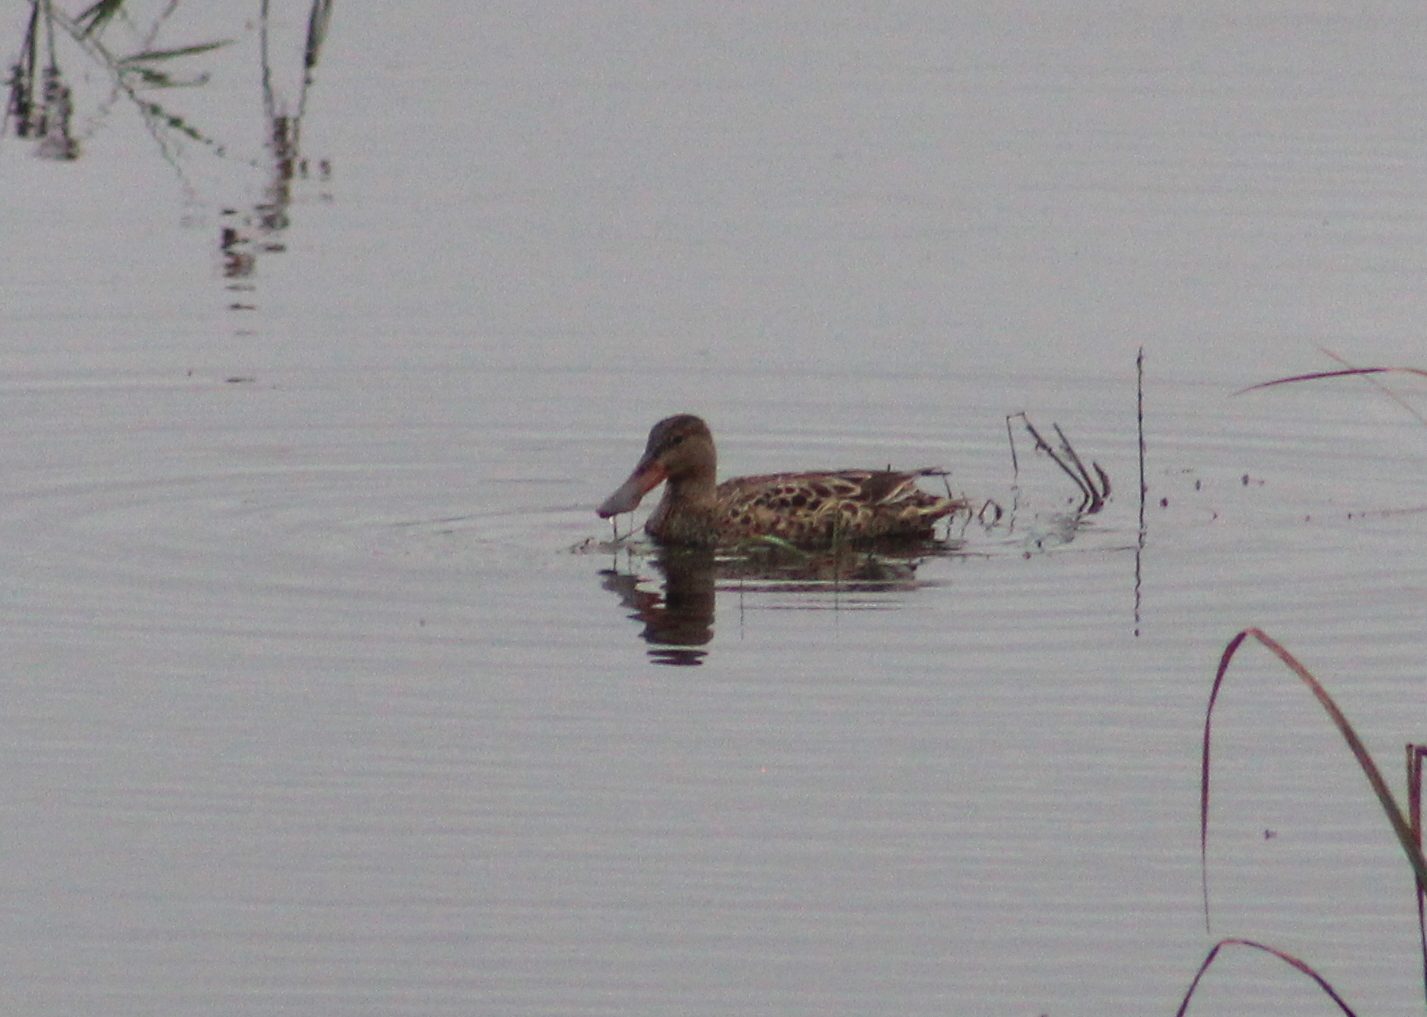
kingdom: Animalia
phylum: Chordata
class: Aves
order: Anseriformes
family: Anatidae
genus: Spatula
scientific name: Spatula clypeata
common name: Northern shoveler
